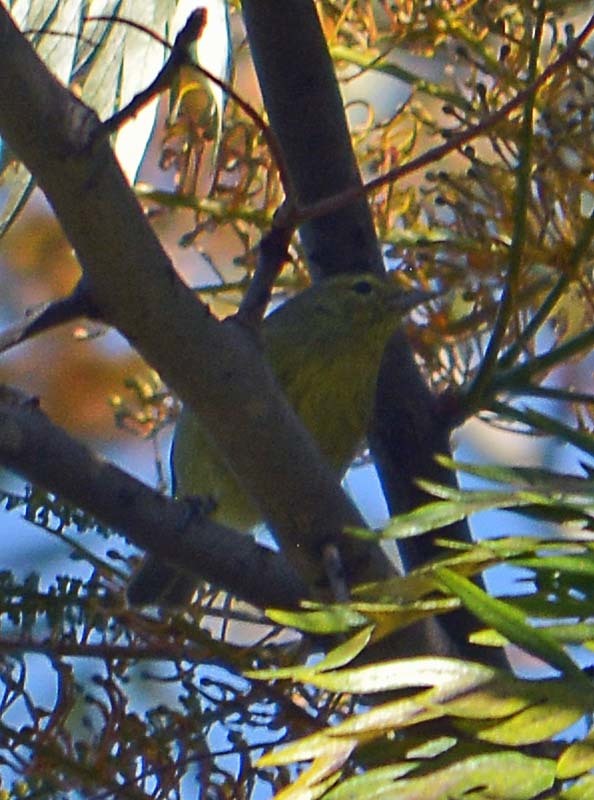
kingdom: Animalia
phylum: Chordata
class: Aves
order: Passeriformes
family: Parulidae
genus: Leiothlypis
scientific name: Leiothlypis celata
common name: Orange-crowned warbler
